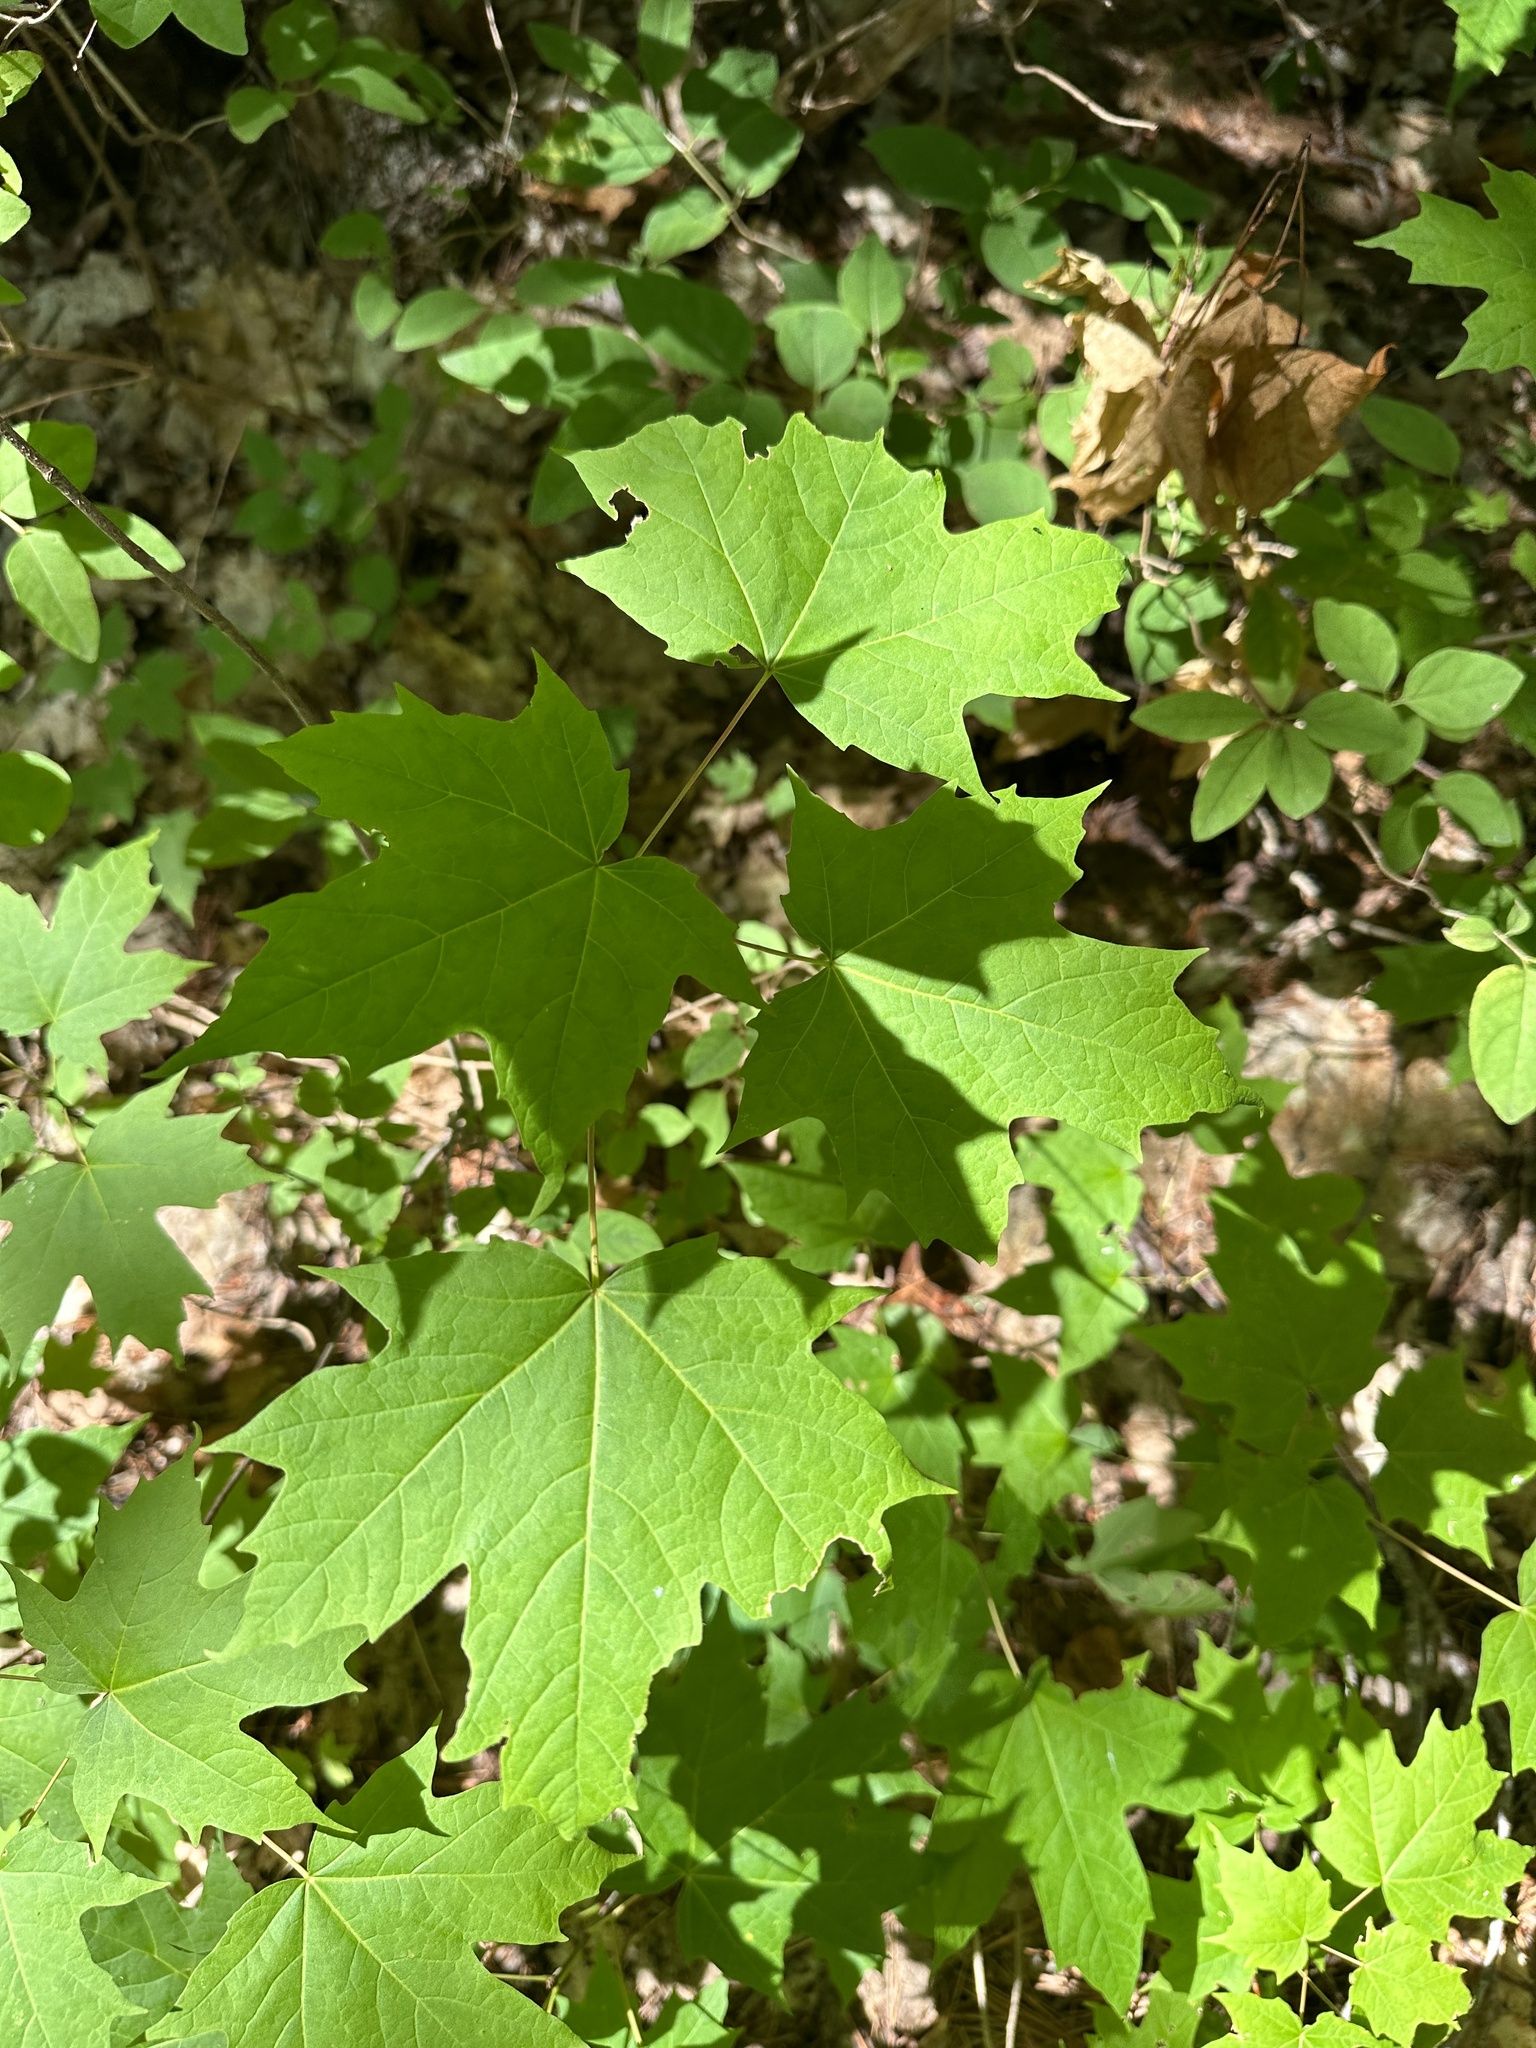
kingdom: Plantae
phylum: Tracheophyta
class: Magnoliopsida
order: Sapindales
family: Sapindaceae
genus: Acer
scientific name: Acer saccharum
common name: Sugar maple
